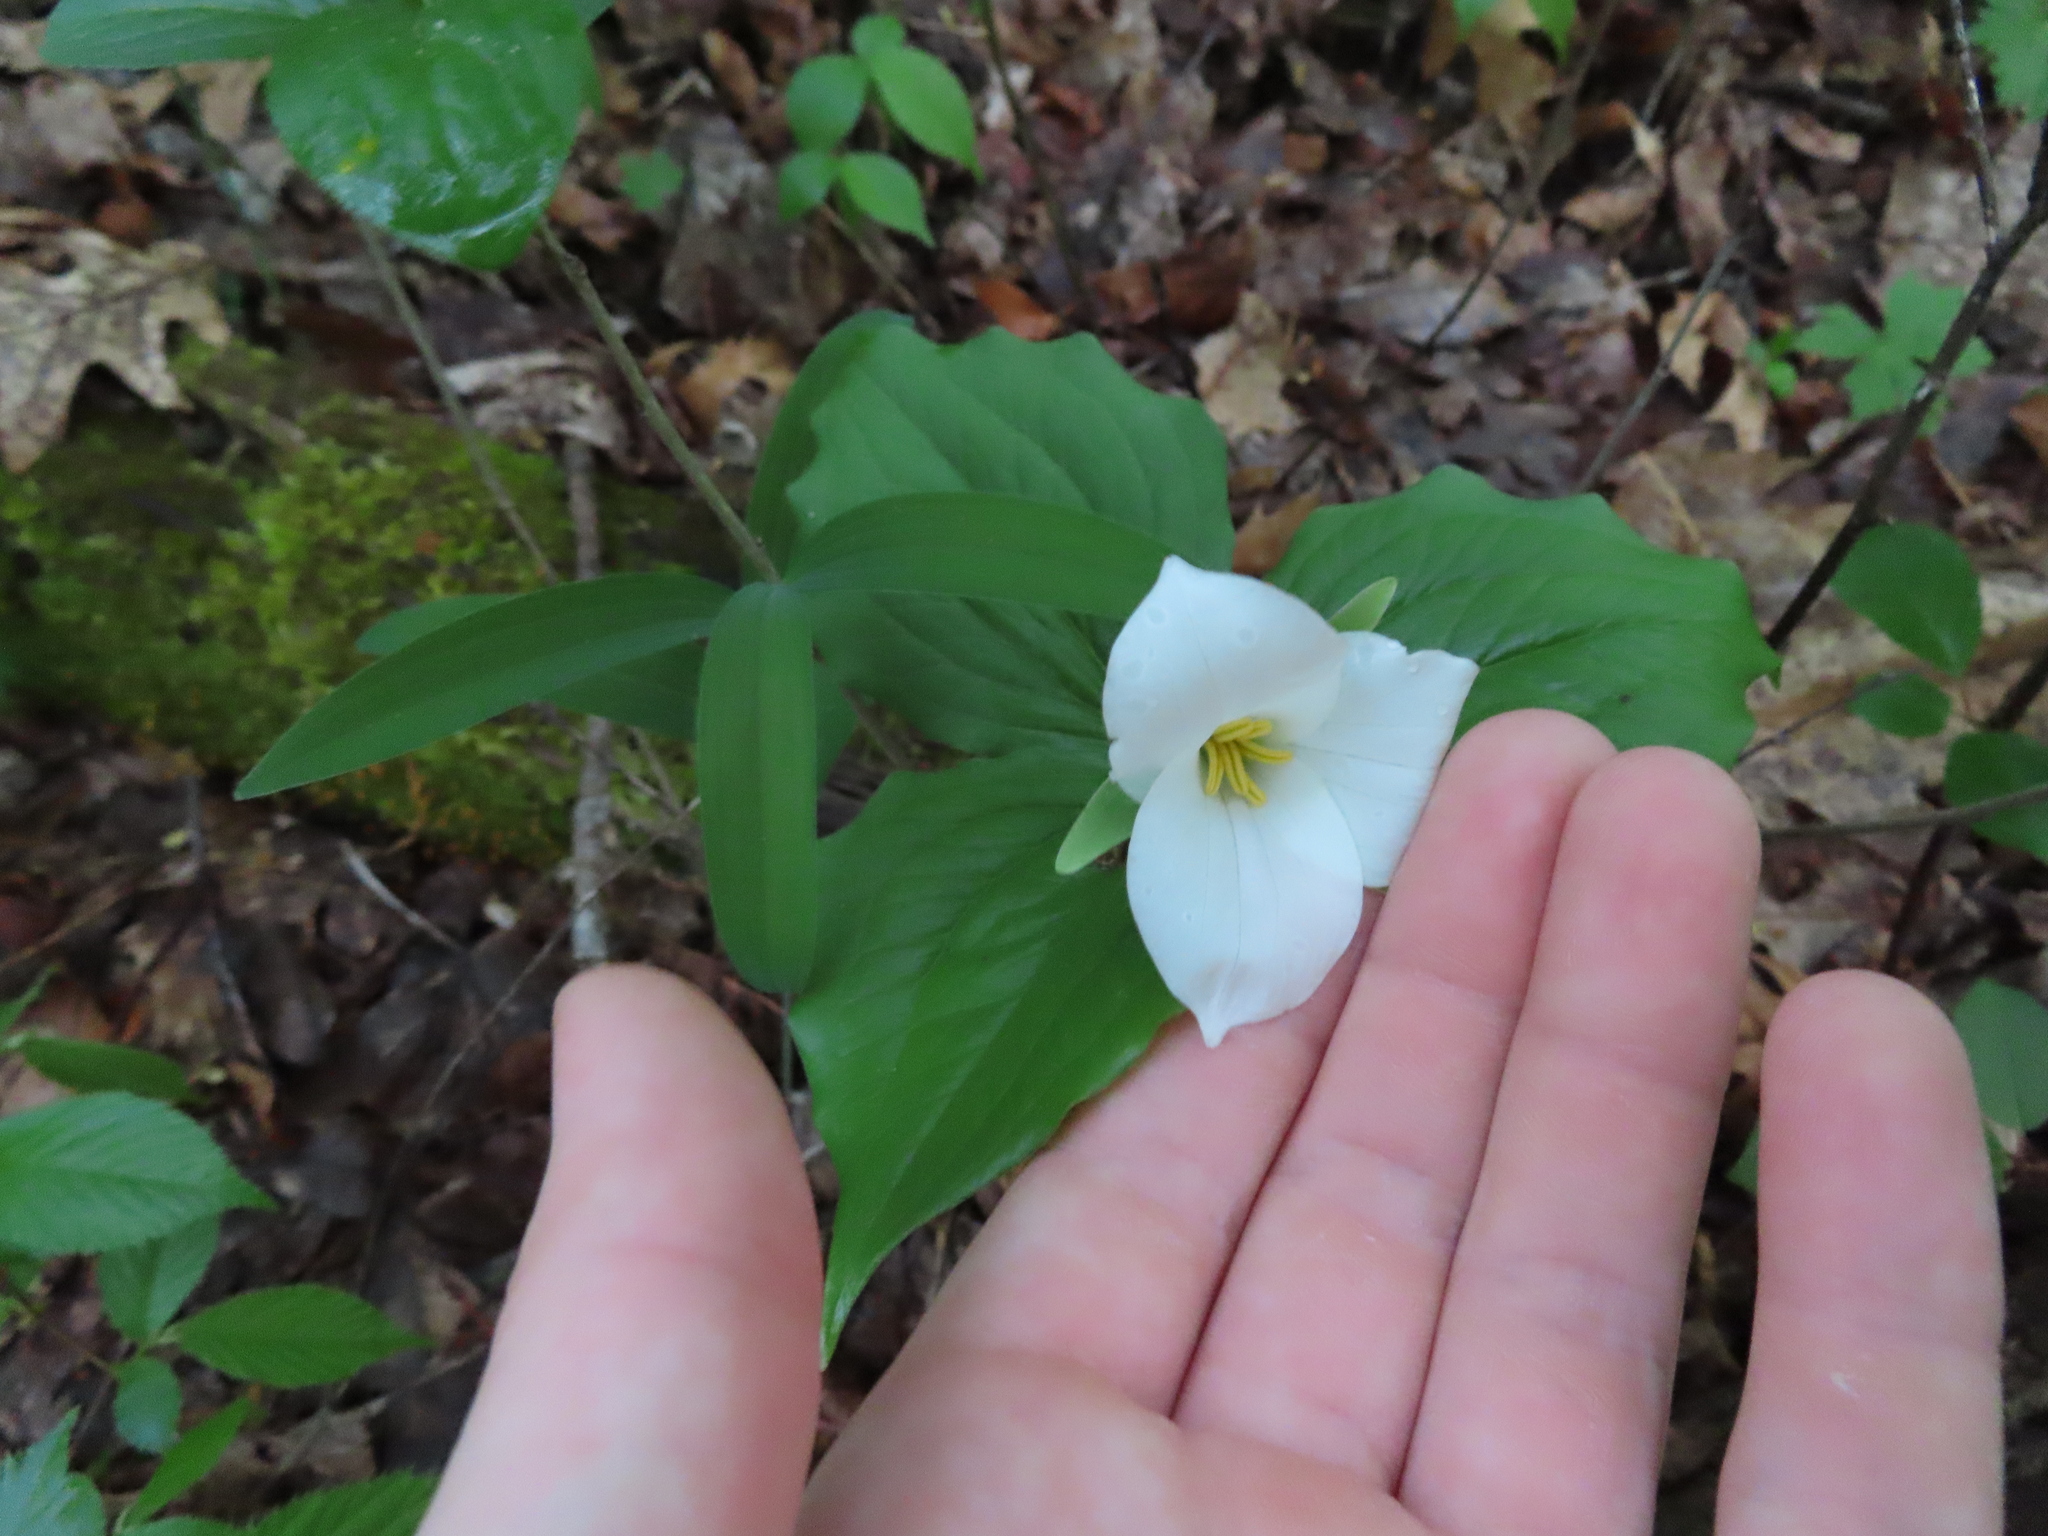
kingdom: Plantae
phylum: Tracheophyta
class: Liliopsida
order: Liliales
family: Melanthiaceae
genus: Trillium
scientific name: Trillium grandiflorum
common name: Great white trillium
